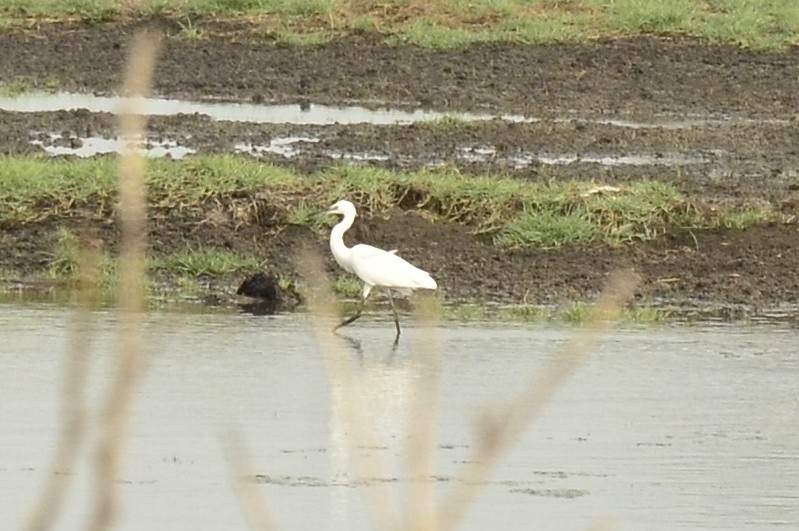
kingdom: Animalia
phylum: Chordata
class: Aves
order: Pelecaniformes
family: Ardeidae
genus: Egretta
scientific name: Egretta garzetta
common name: Little egret
